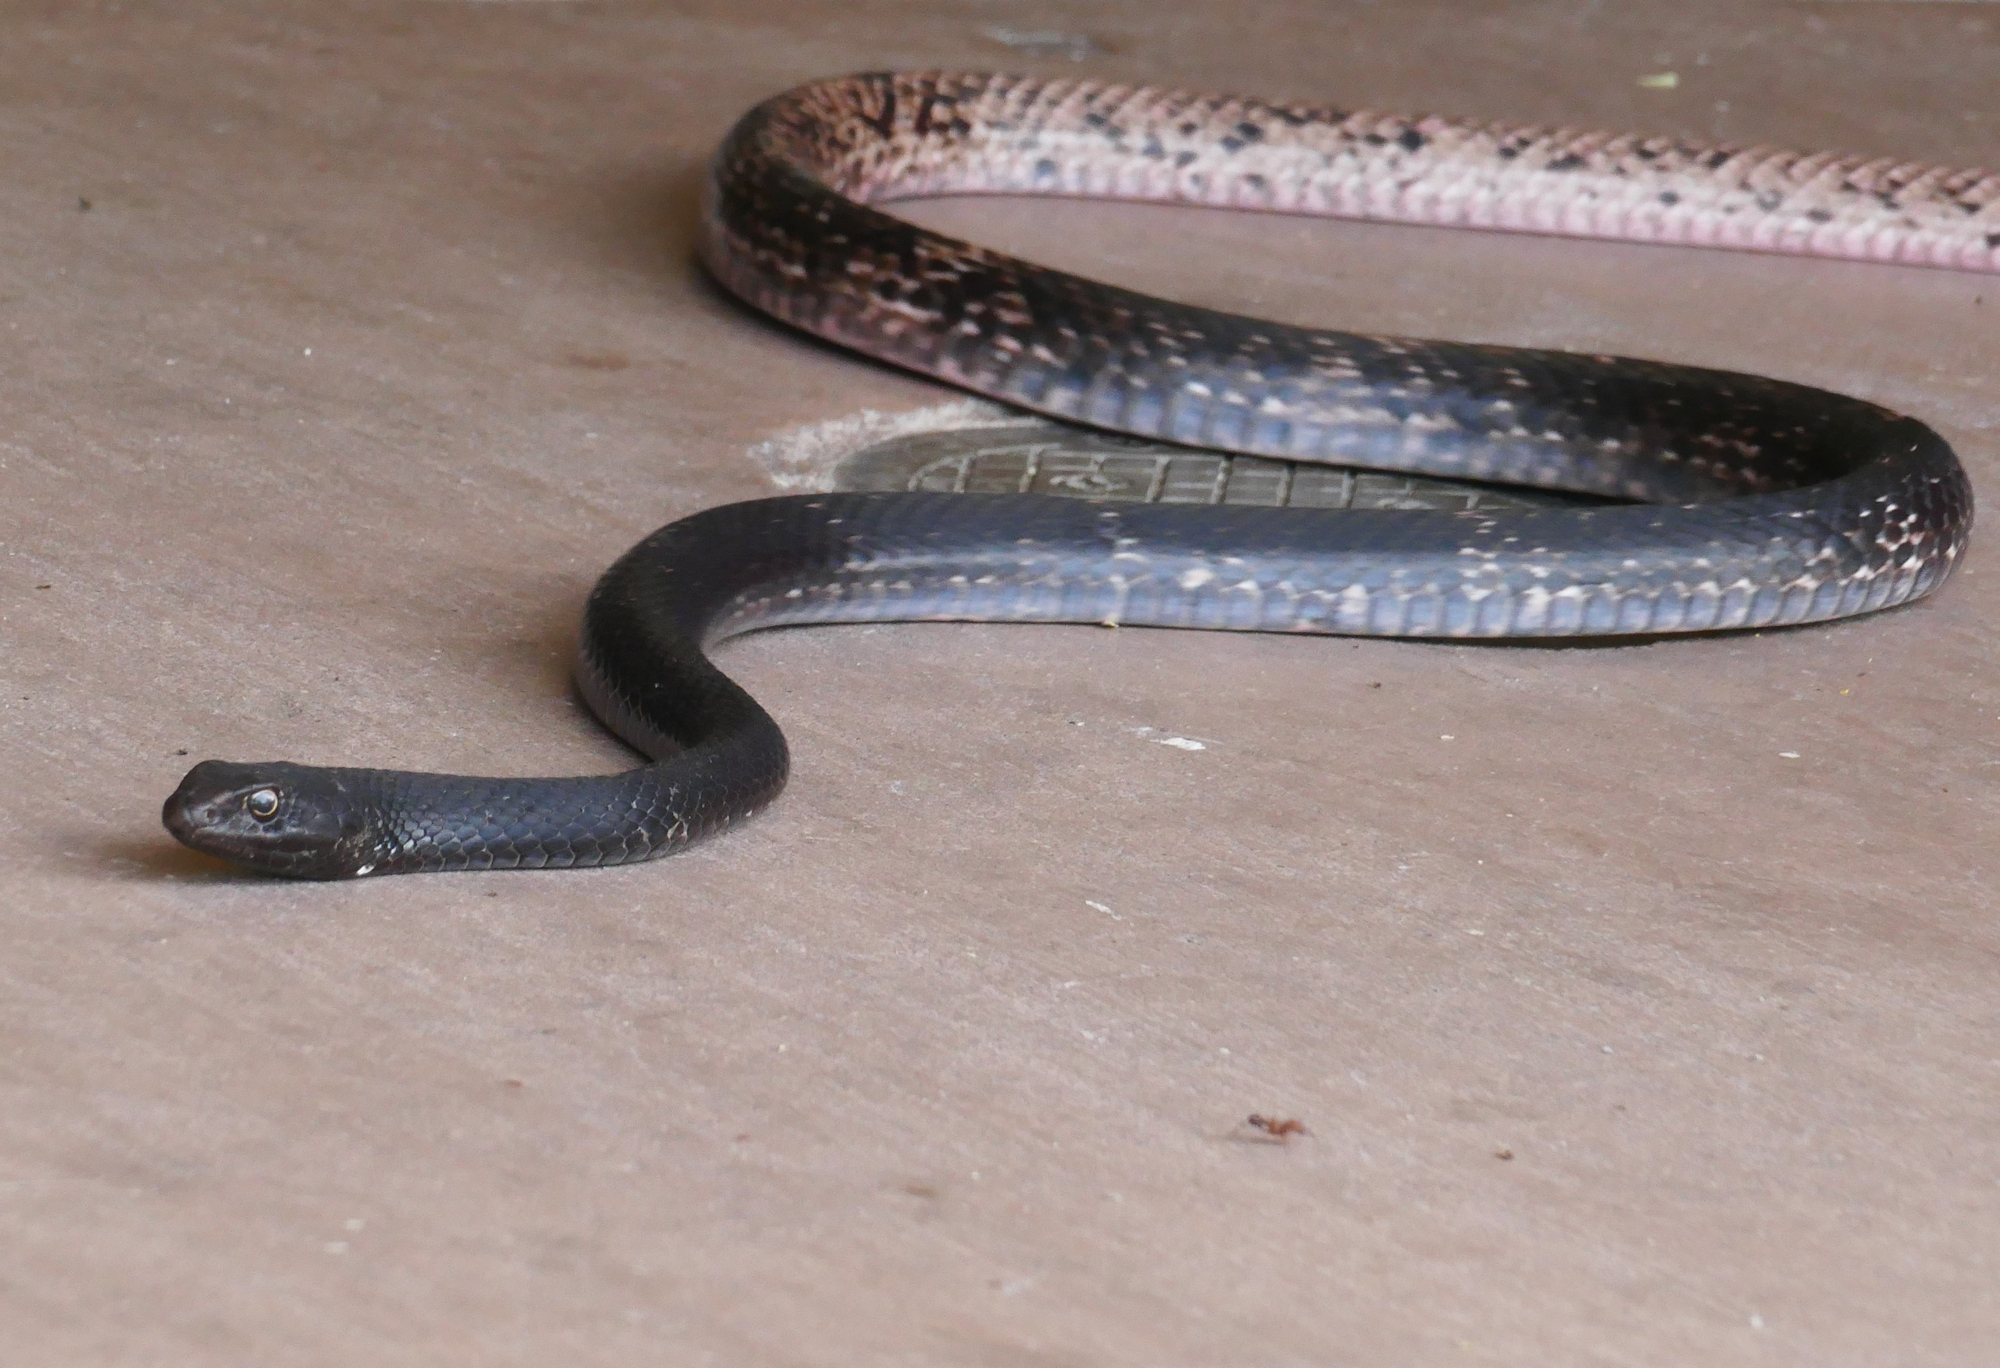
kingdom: Animalia
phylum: Chordata
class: Squamata
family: Colubridae
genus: Masticophis
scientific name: Masticophis flagellum
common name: Coachwhip
